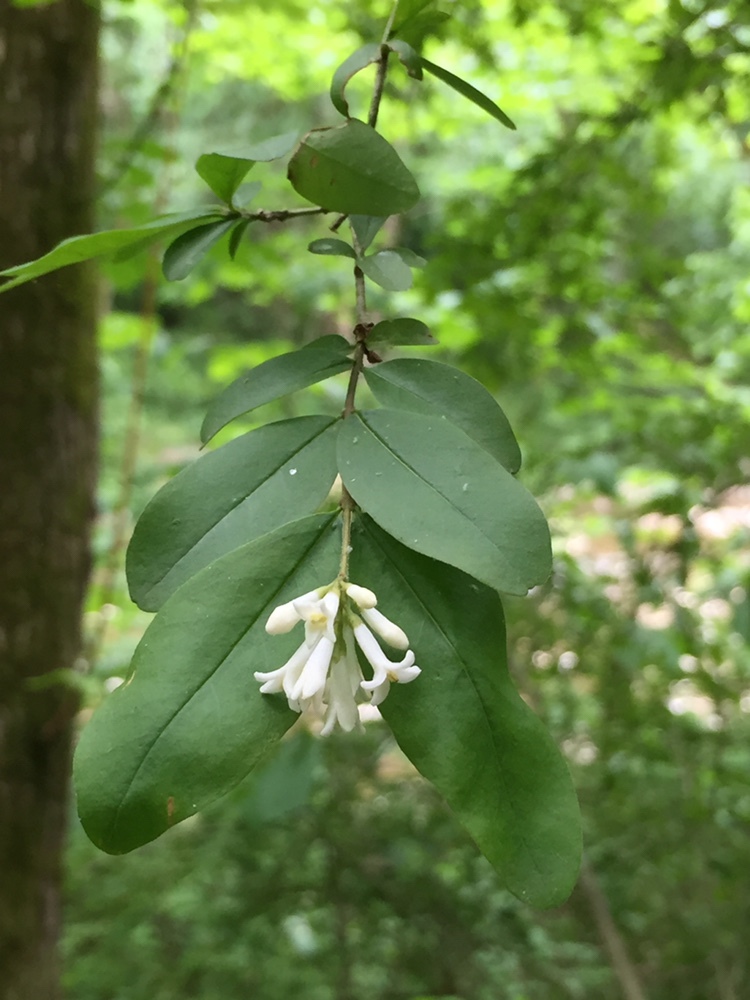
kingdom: Plantae
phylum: Tracheophyta
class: Magnoliopsida
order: Lamiales
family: Oleaceae
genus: Ligustrum
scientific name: Ligustrum obtusifolium
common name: Border privet
